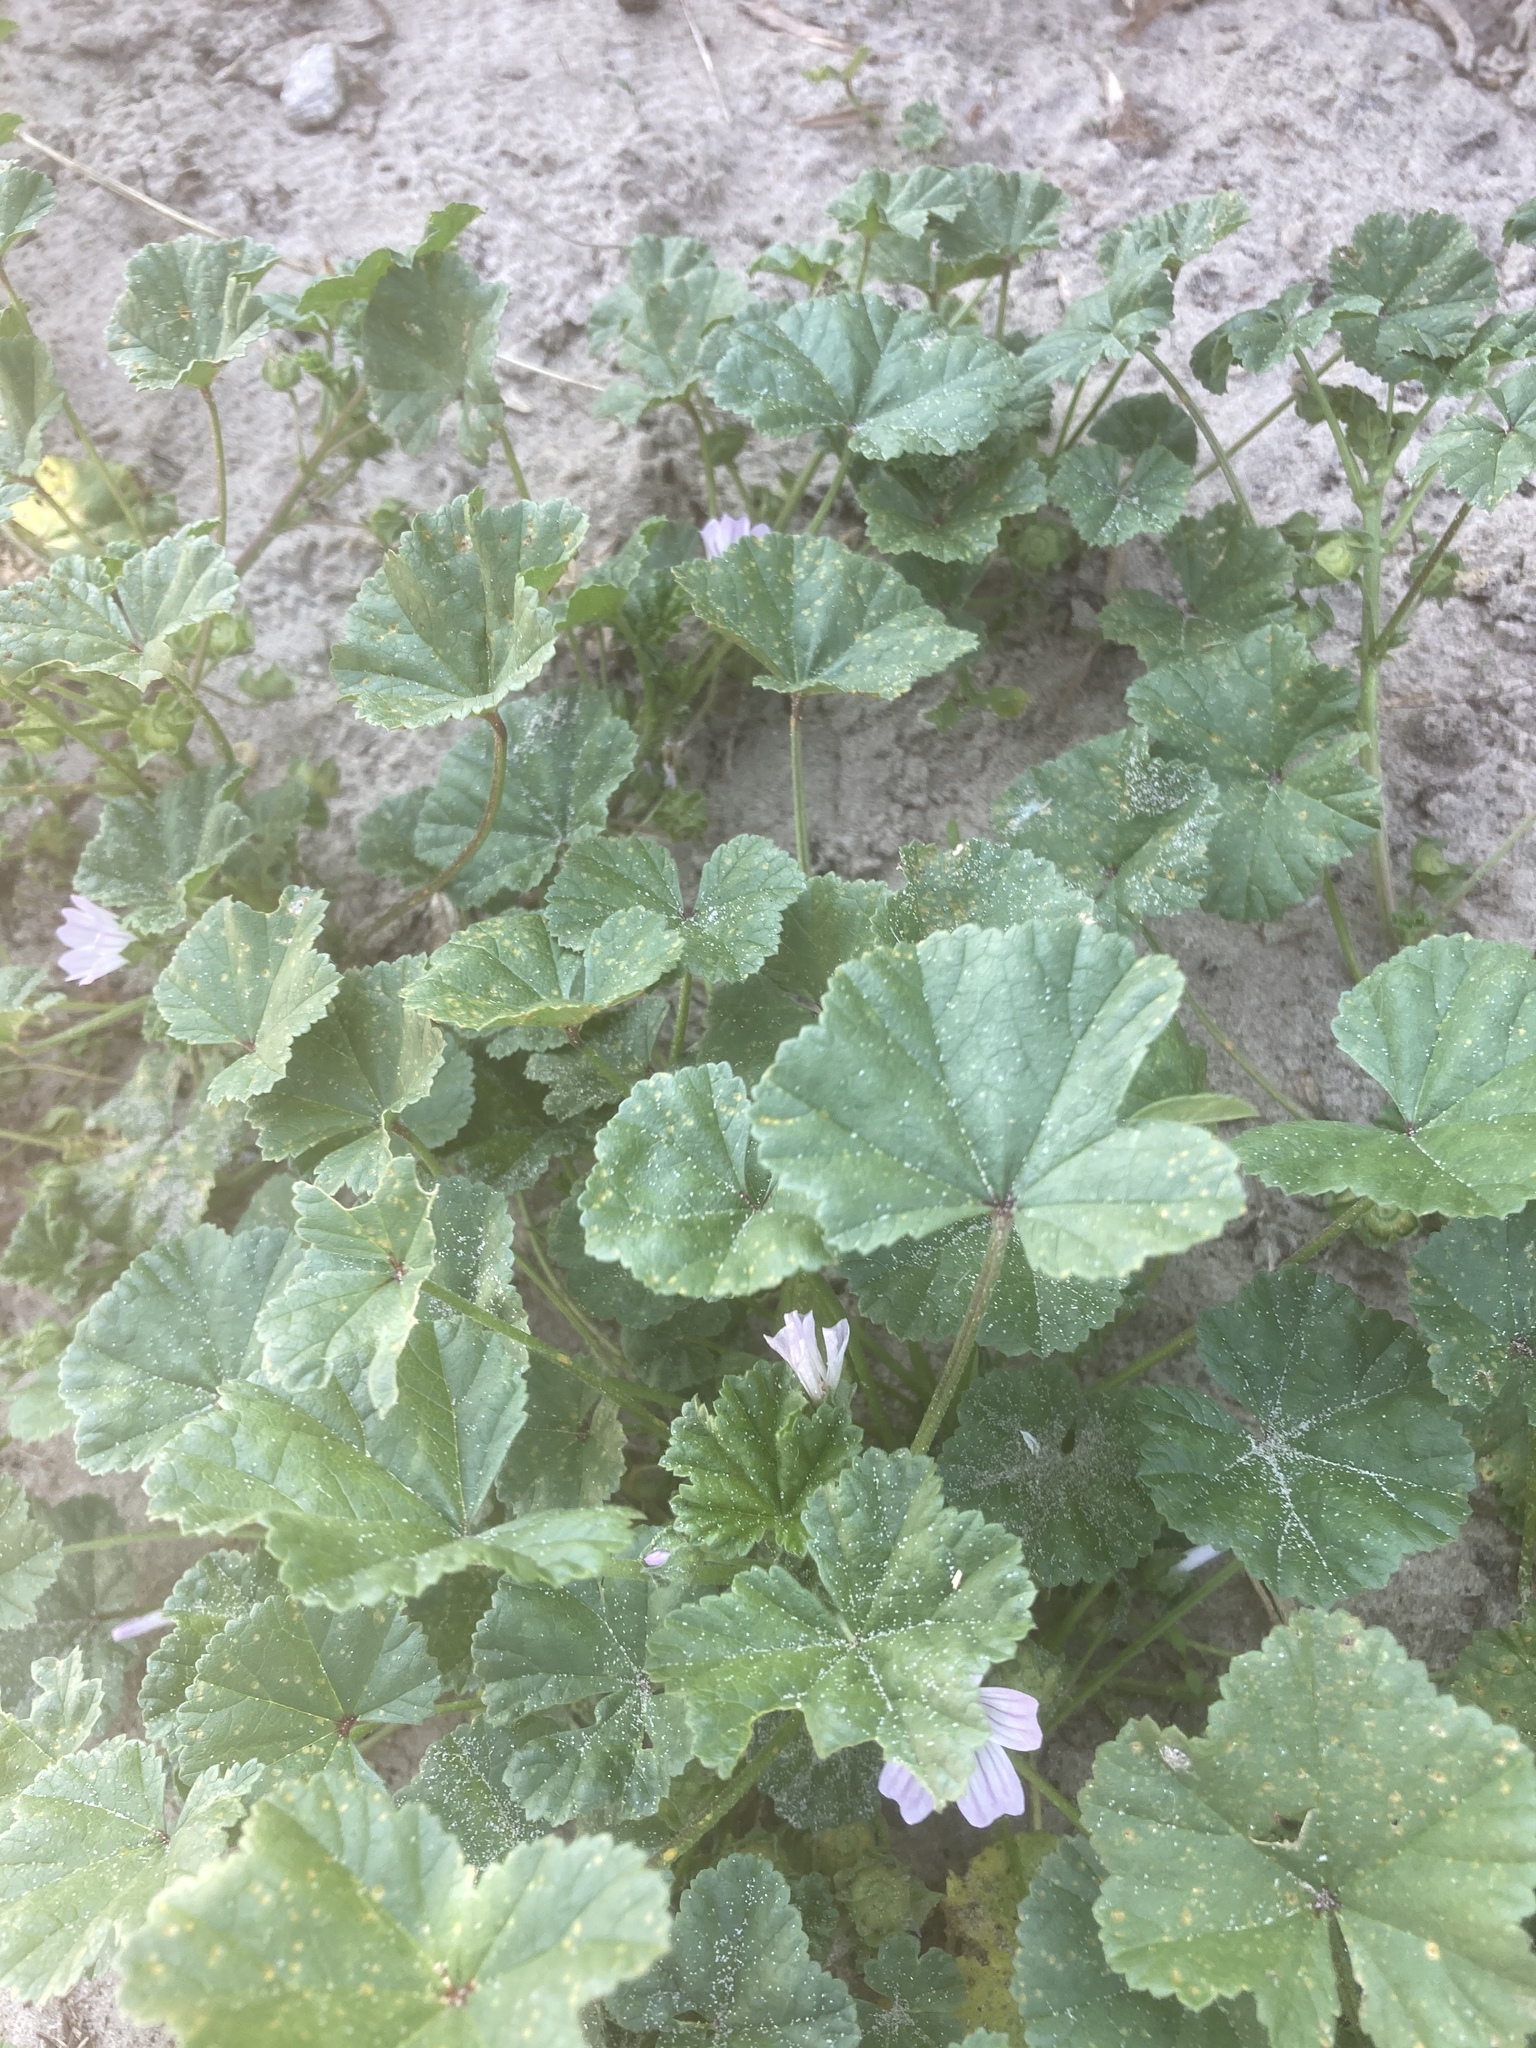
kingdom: Plantae
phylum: Tracheophyta
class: Magnoliopsida
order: Malvales
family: Malvaceae
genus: Malva
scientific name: Malva neglecta
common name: Common mallow
